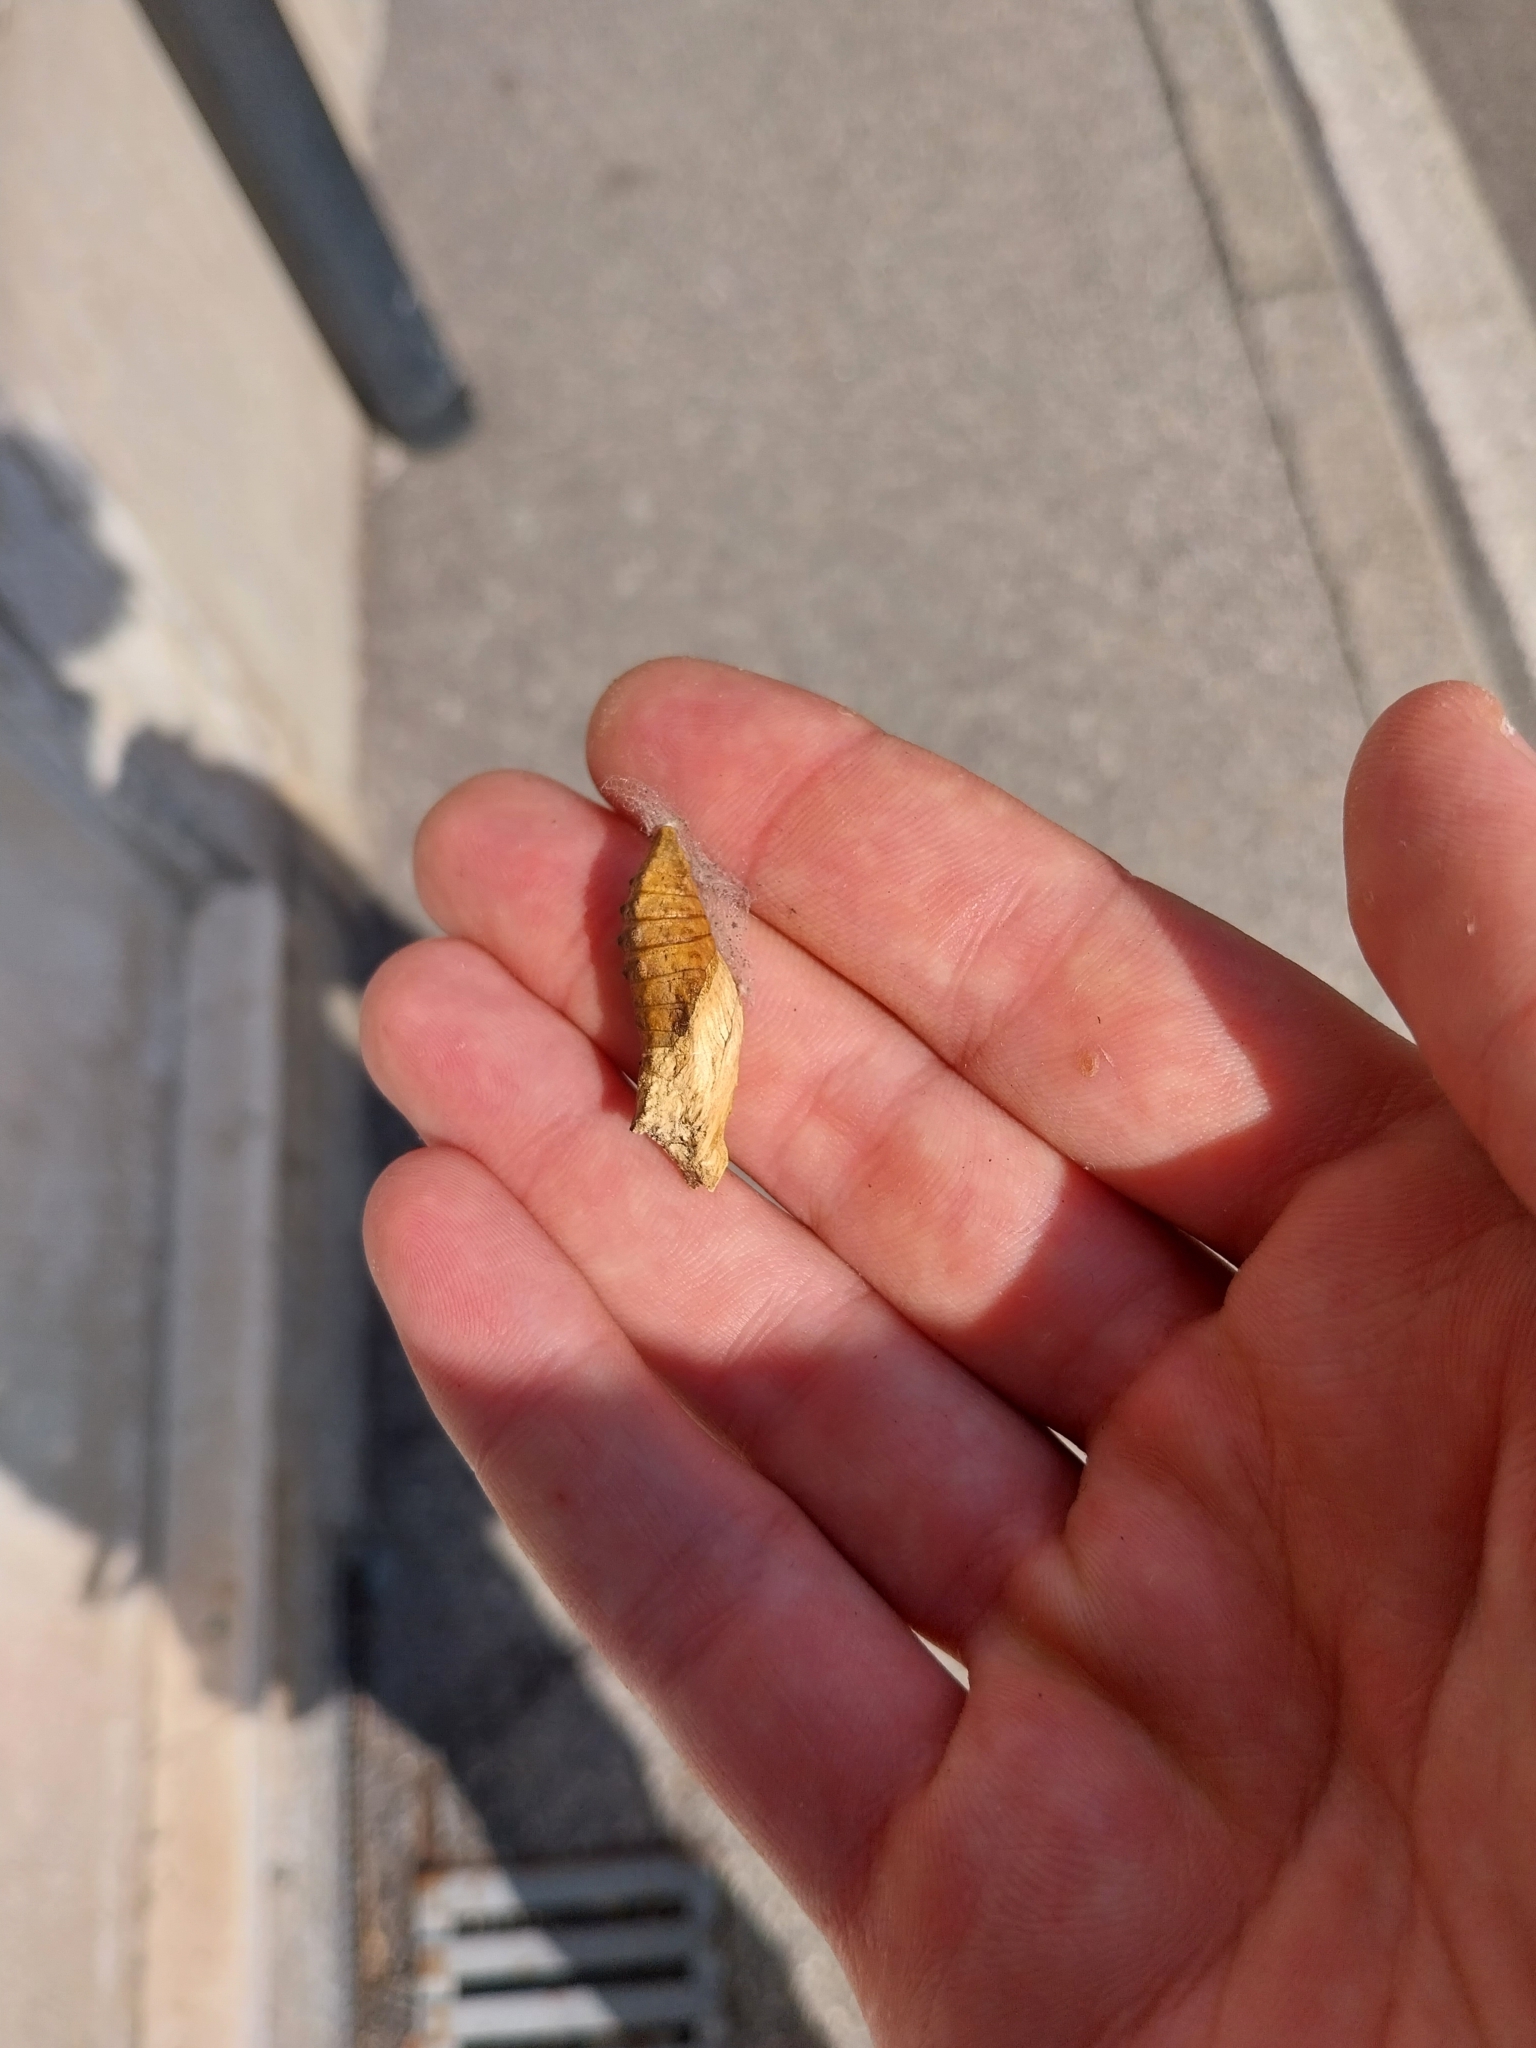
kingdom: Animalia
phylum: Arthropoda
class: Insecta
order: Lepidoptera
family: Papilionidae
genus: Papilio
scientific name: Papilio machaon
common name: Swallowtail
